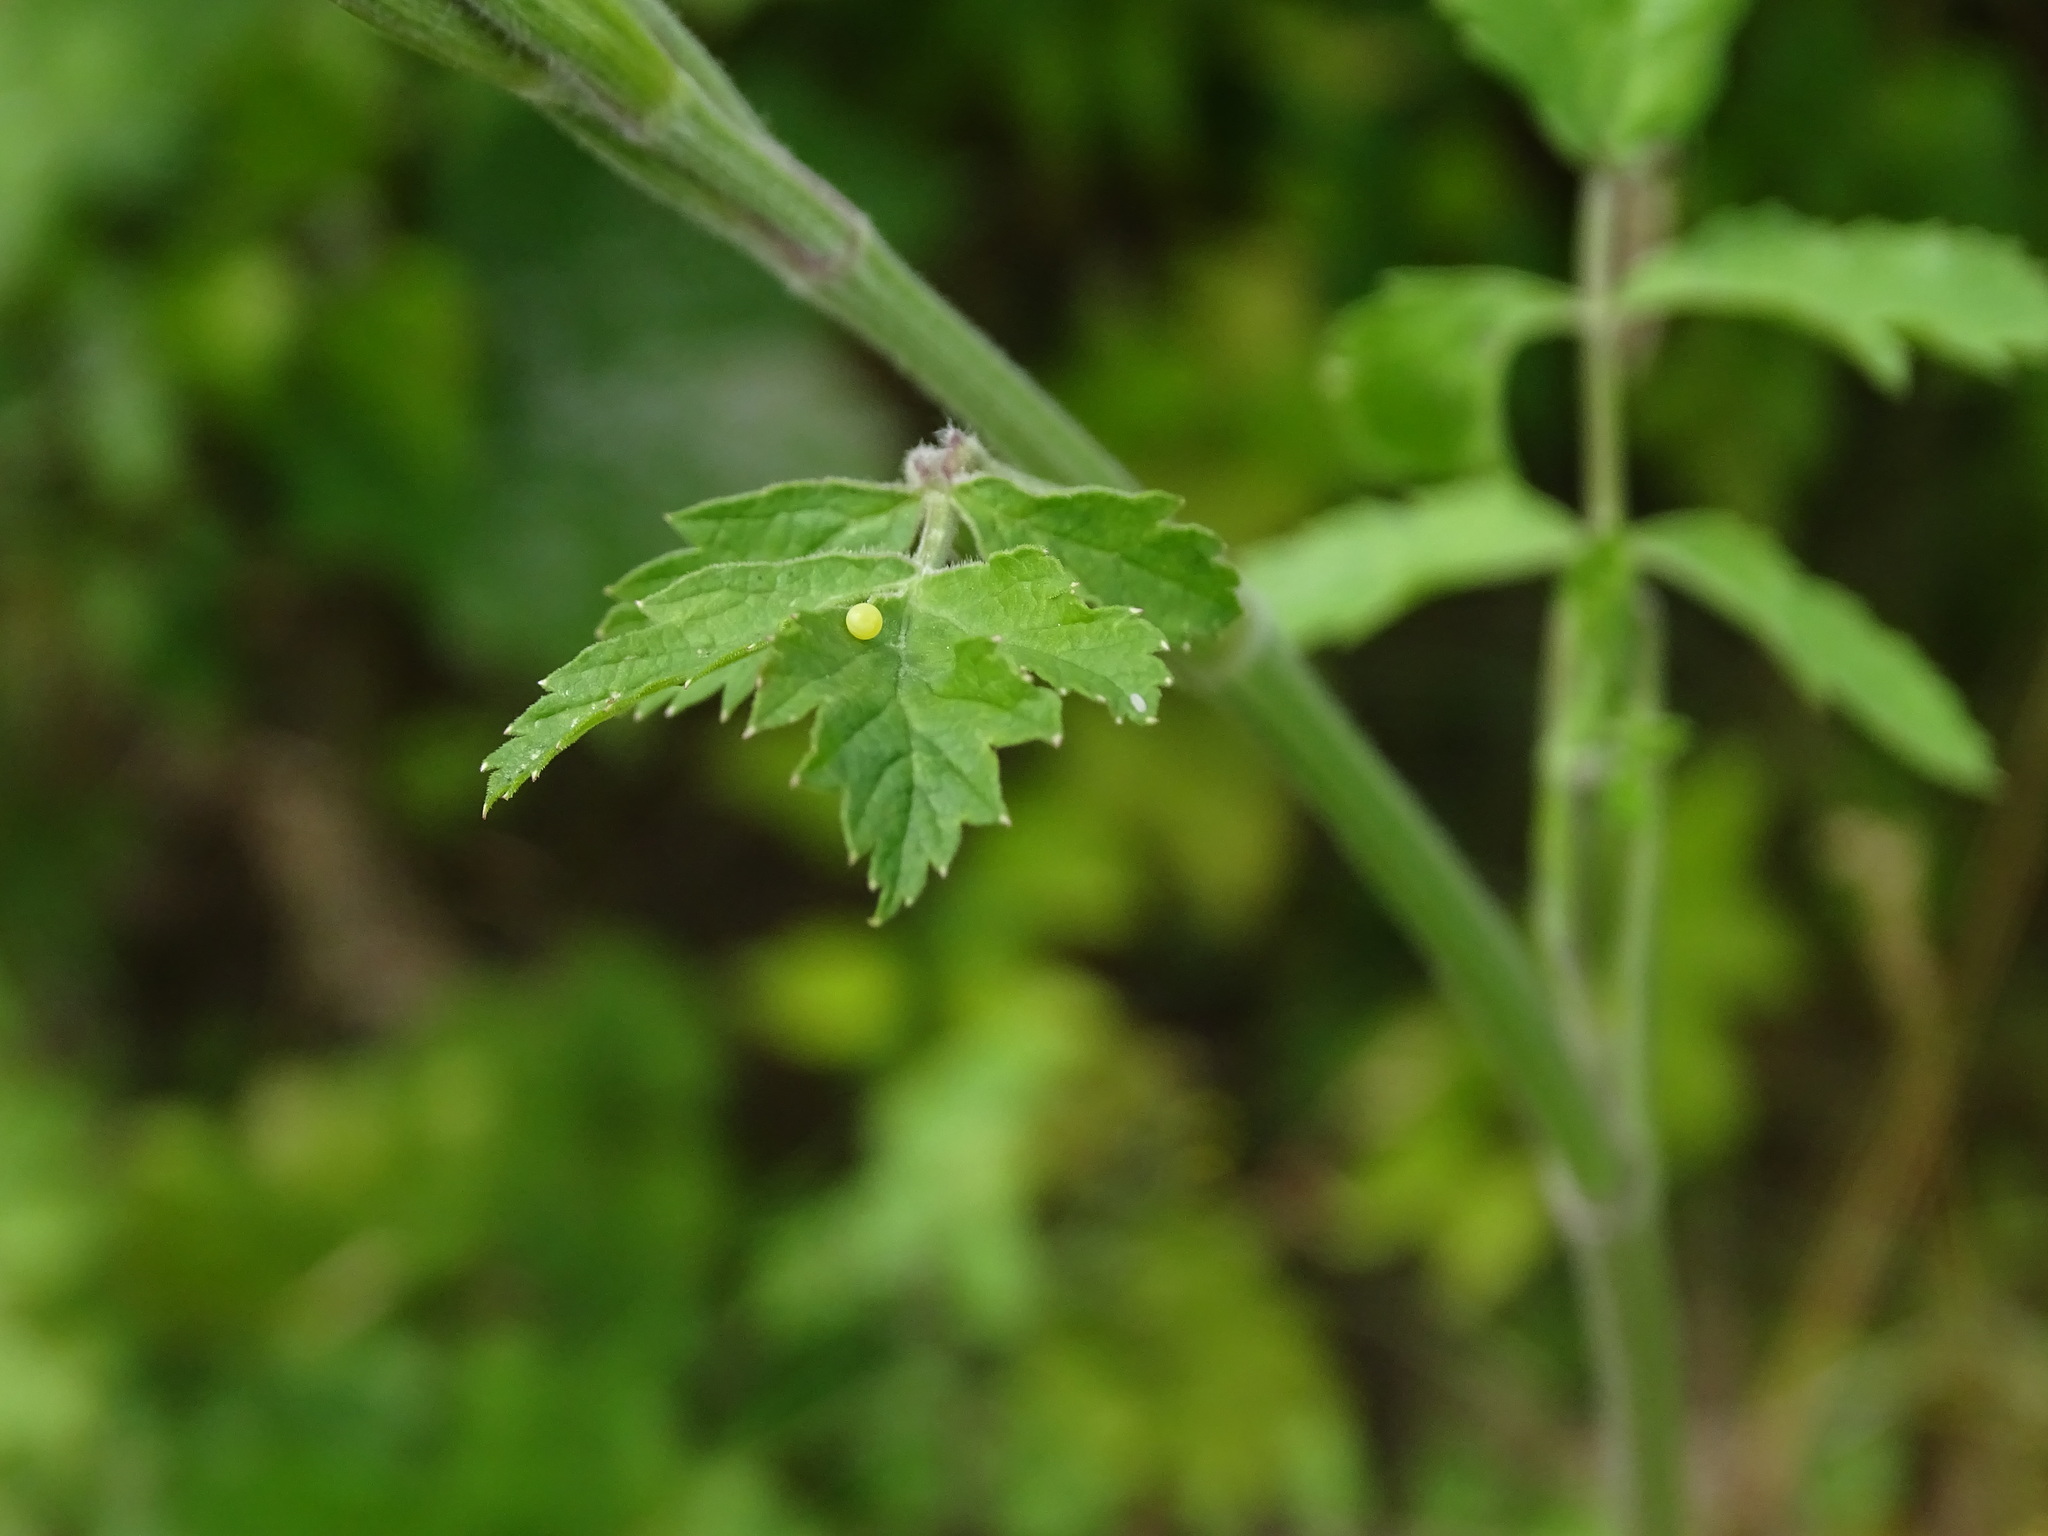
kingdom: Animalia
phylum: Arthropoda
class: Insecta
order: Lepidoptera
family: Papilionidae
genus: Papilio
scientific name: Papilio machaon
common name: Swallowtail
